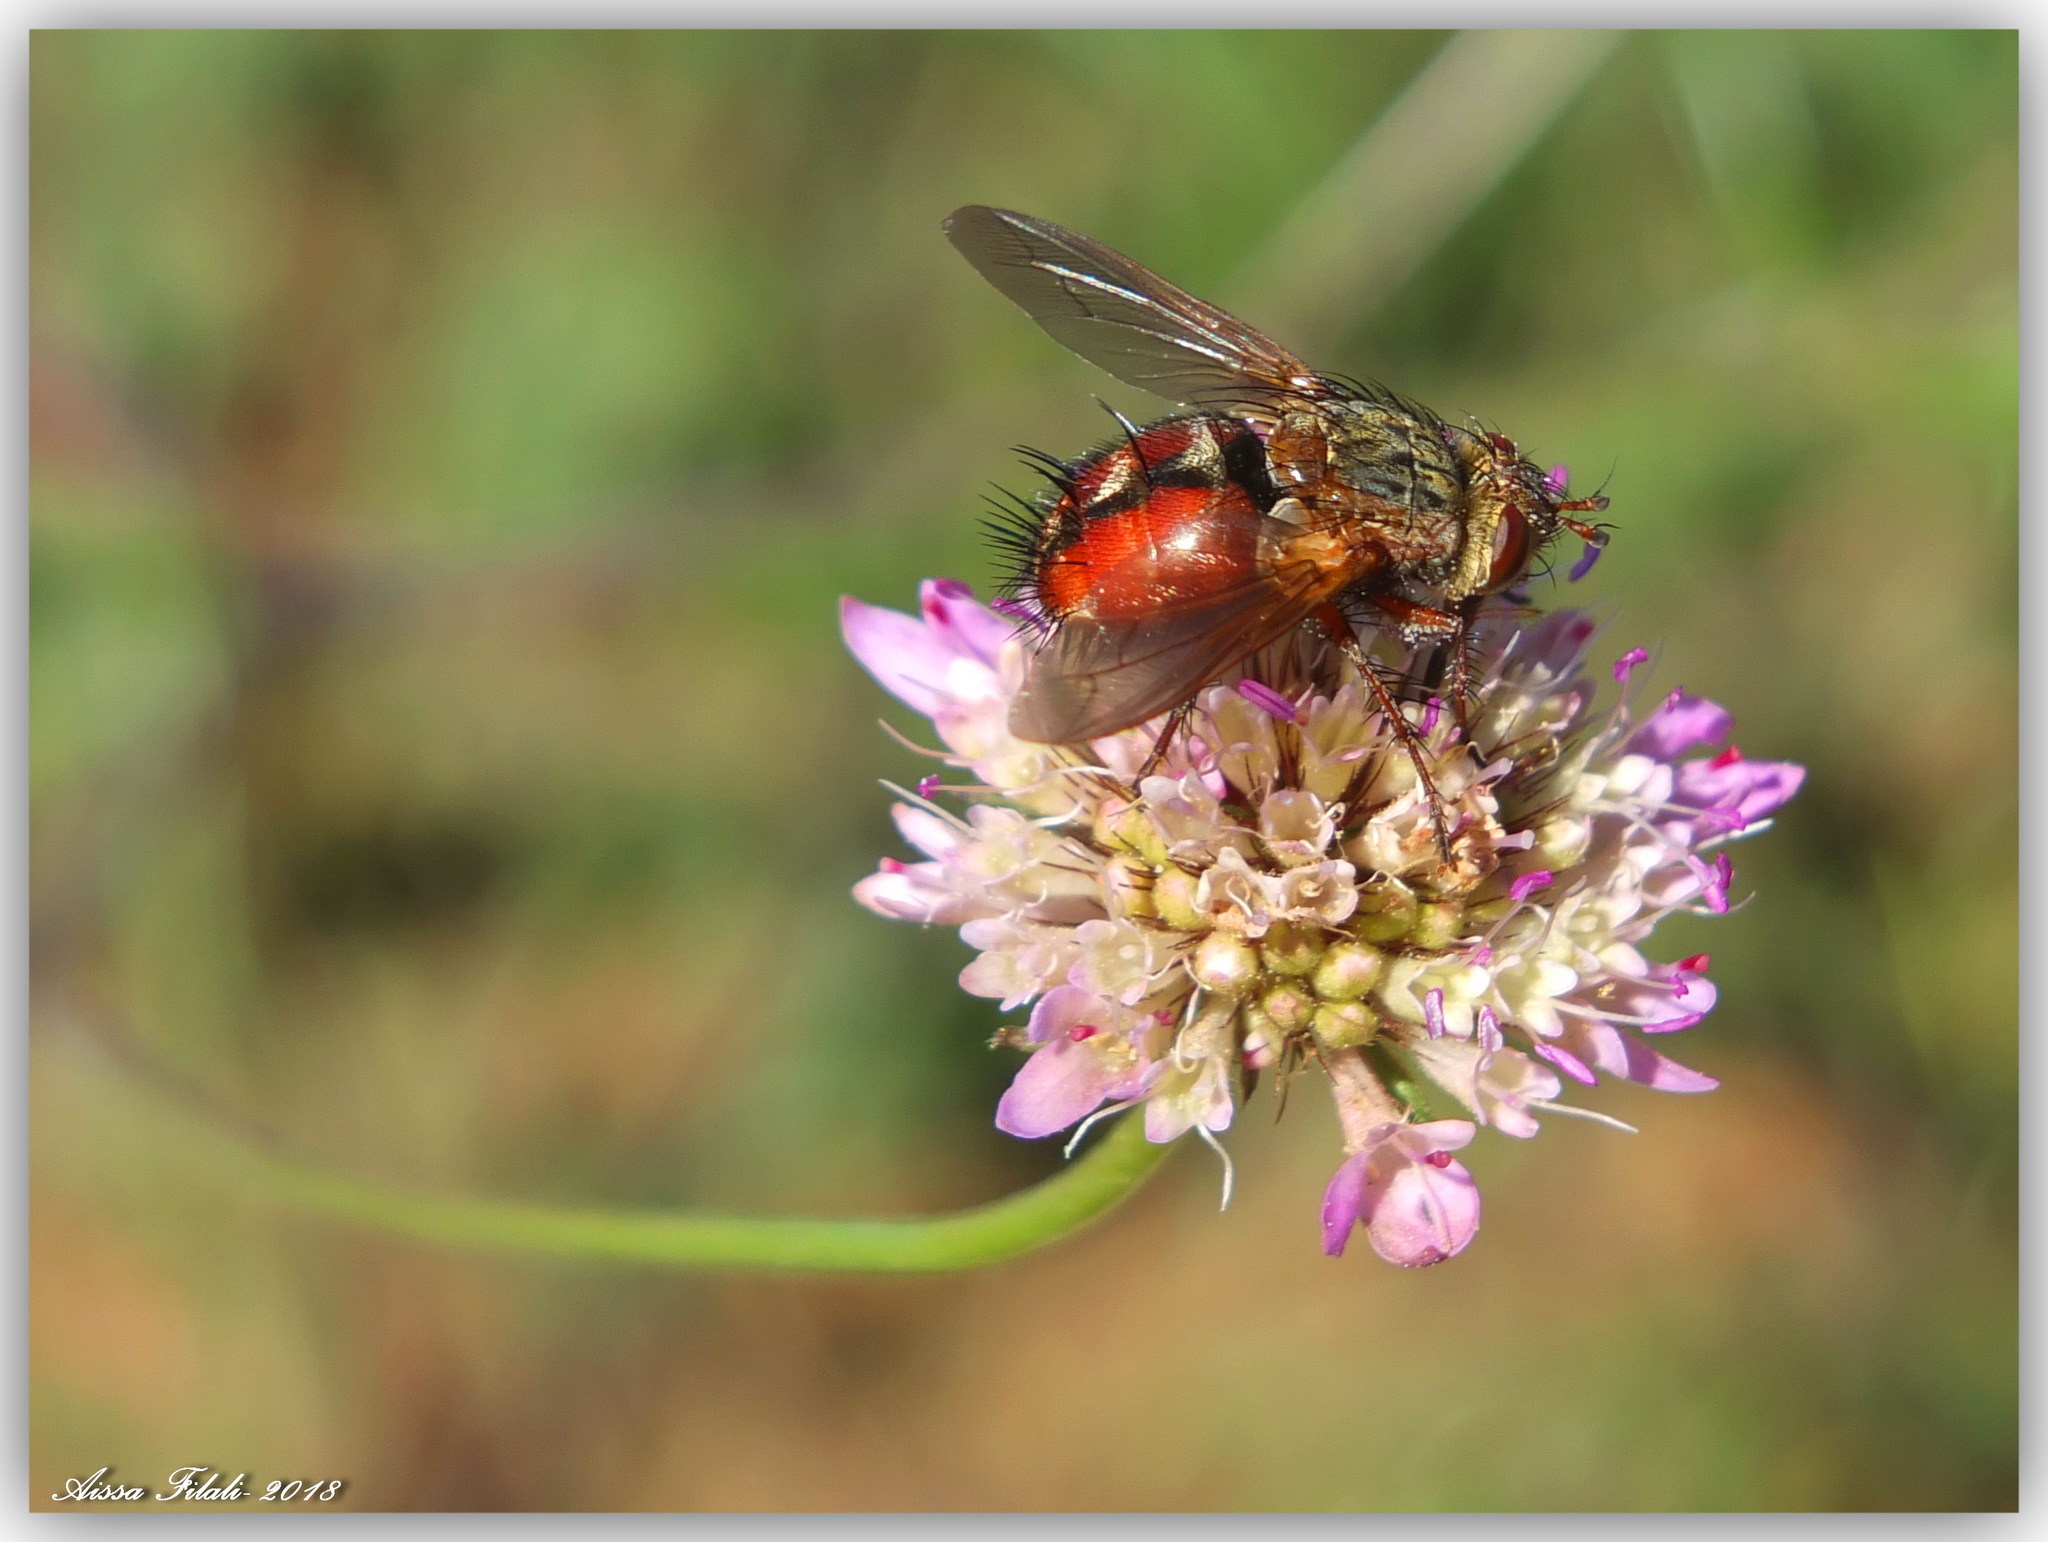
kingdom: Animalia
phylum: Arthropoda
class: Insecta
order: Diptera
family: Tachinidae
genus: Tachina
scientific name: Tachina fera
